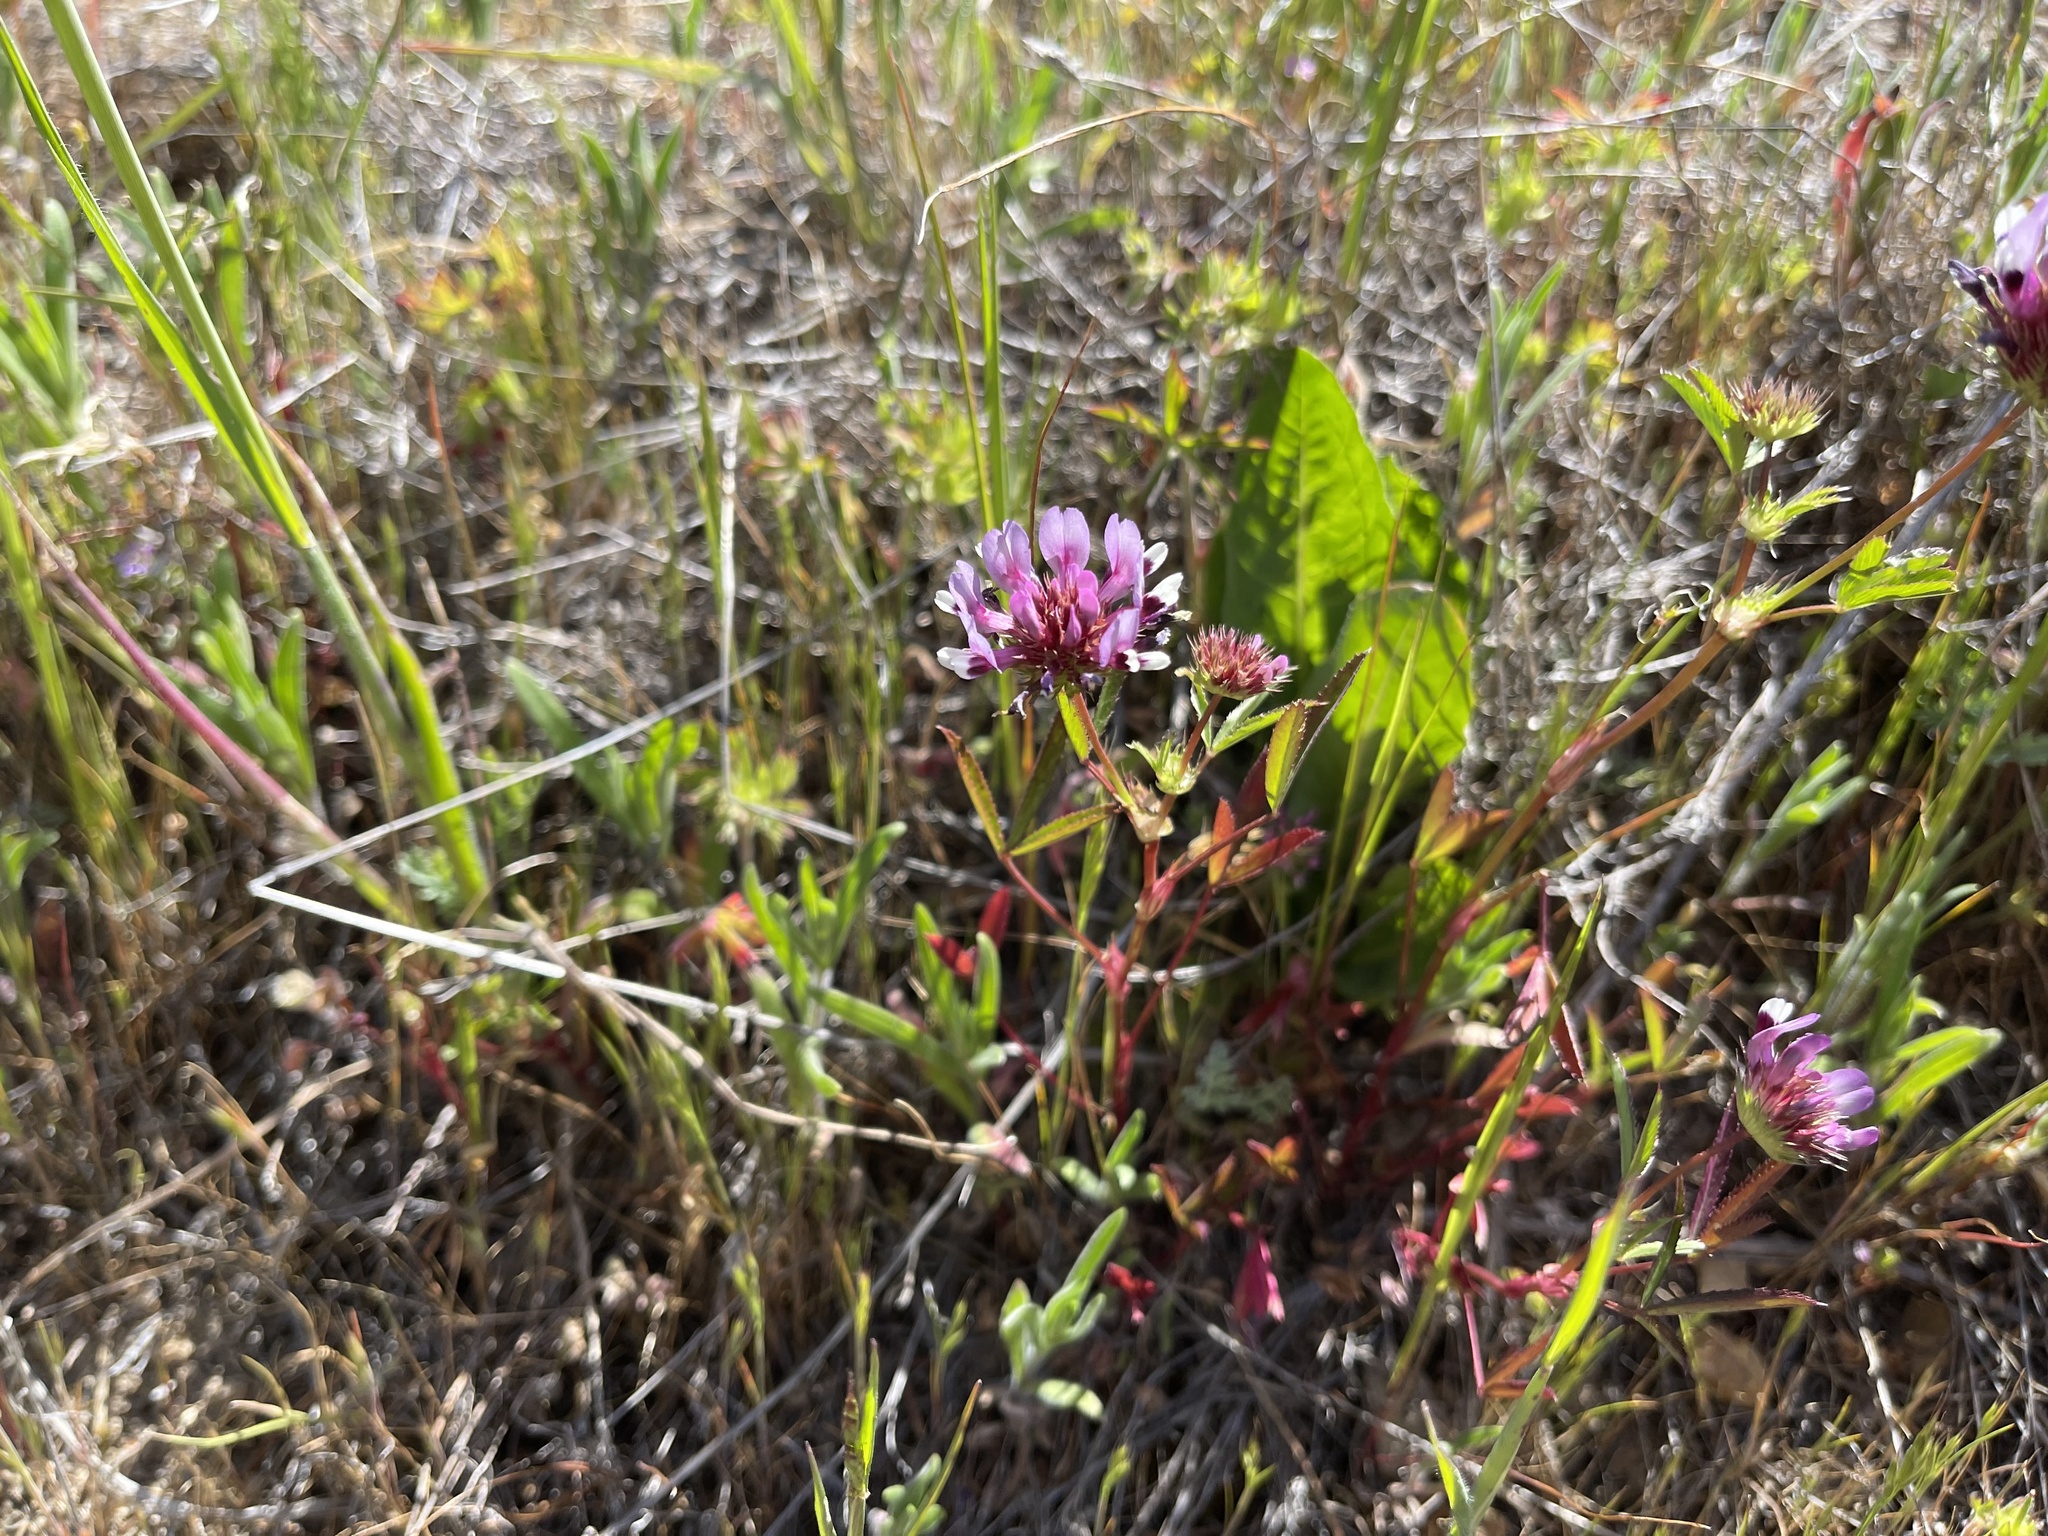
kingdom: Plantae
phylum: Tracheophyta
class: Magnoliopsida
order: Fabales
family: Fabaceae
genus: Trifolium
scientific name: Trifolium willdenovii
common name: Tomcat clover
